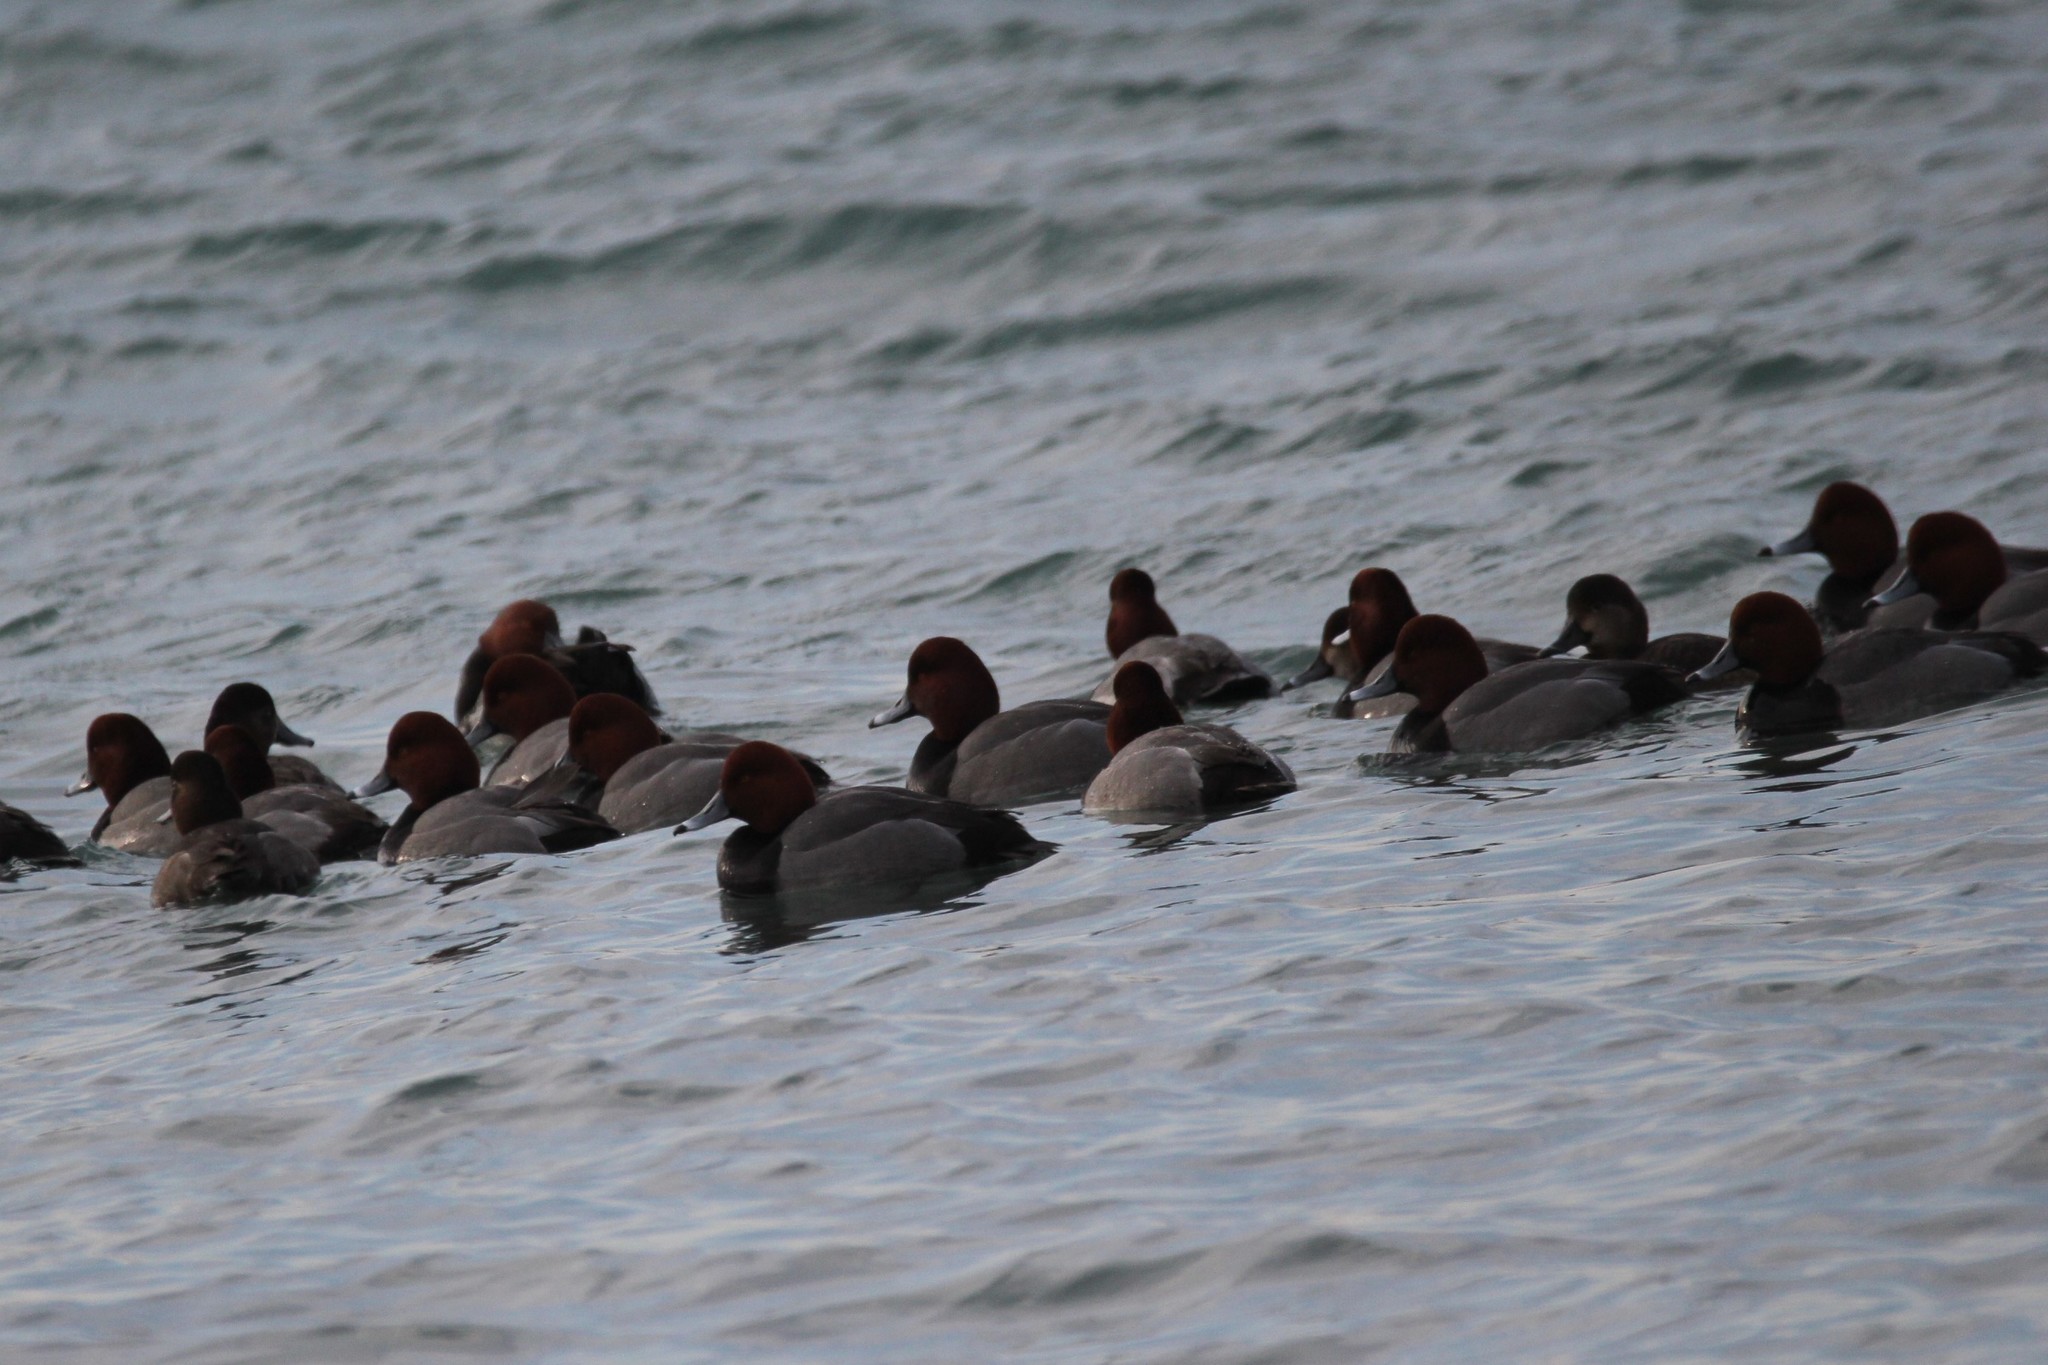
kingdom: Animalia
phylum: Chordata
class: Aves
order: Anseriformes
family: Anatidae
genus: Aythya
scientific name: Aythya americana
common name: Redhead
